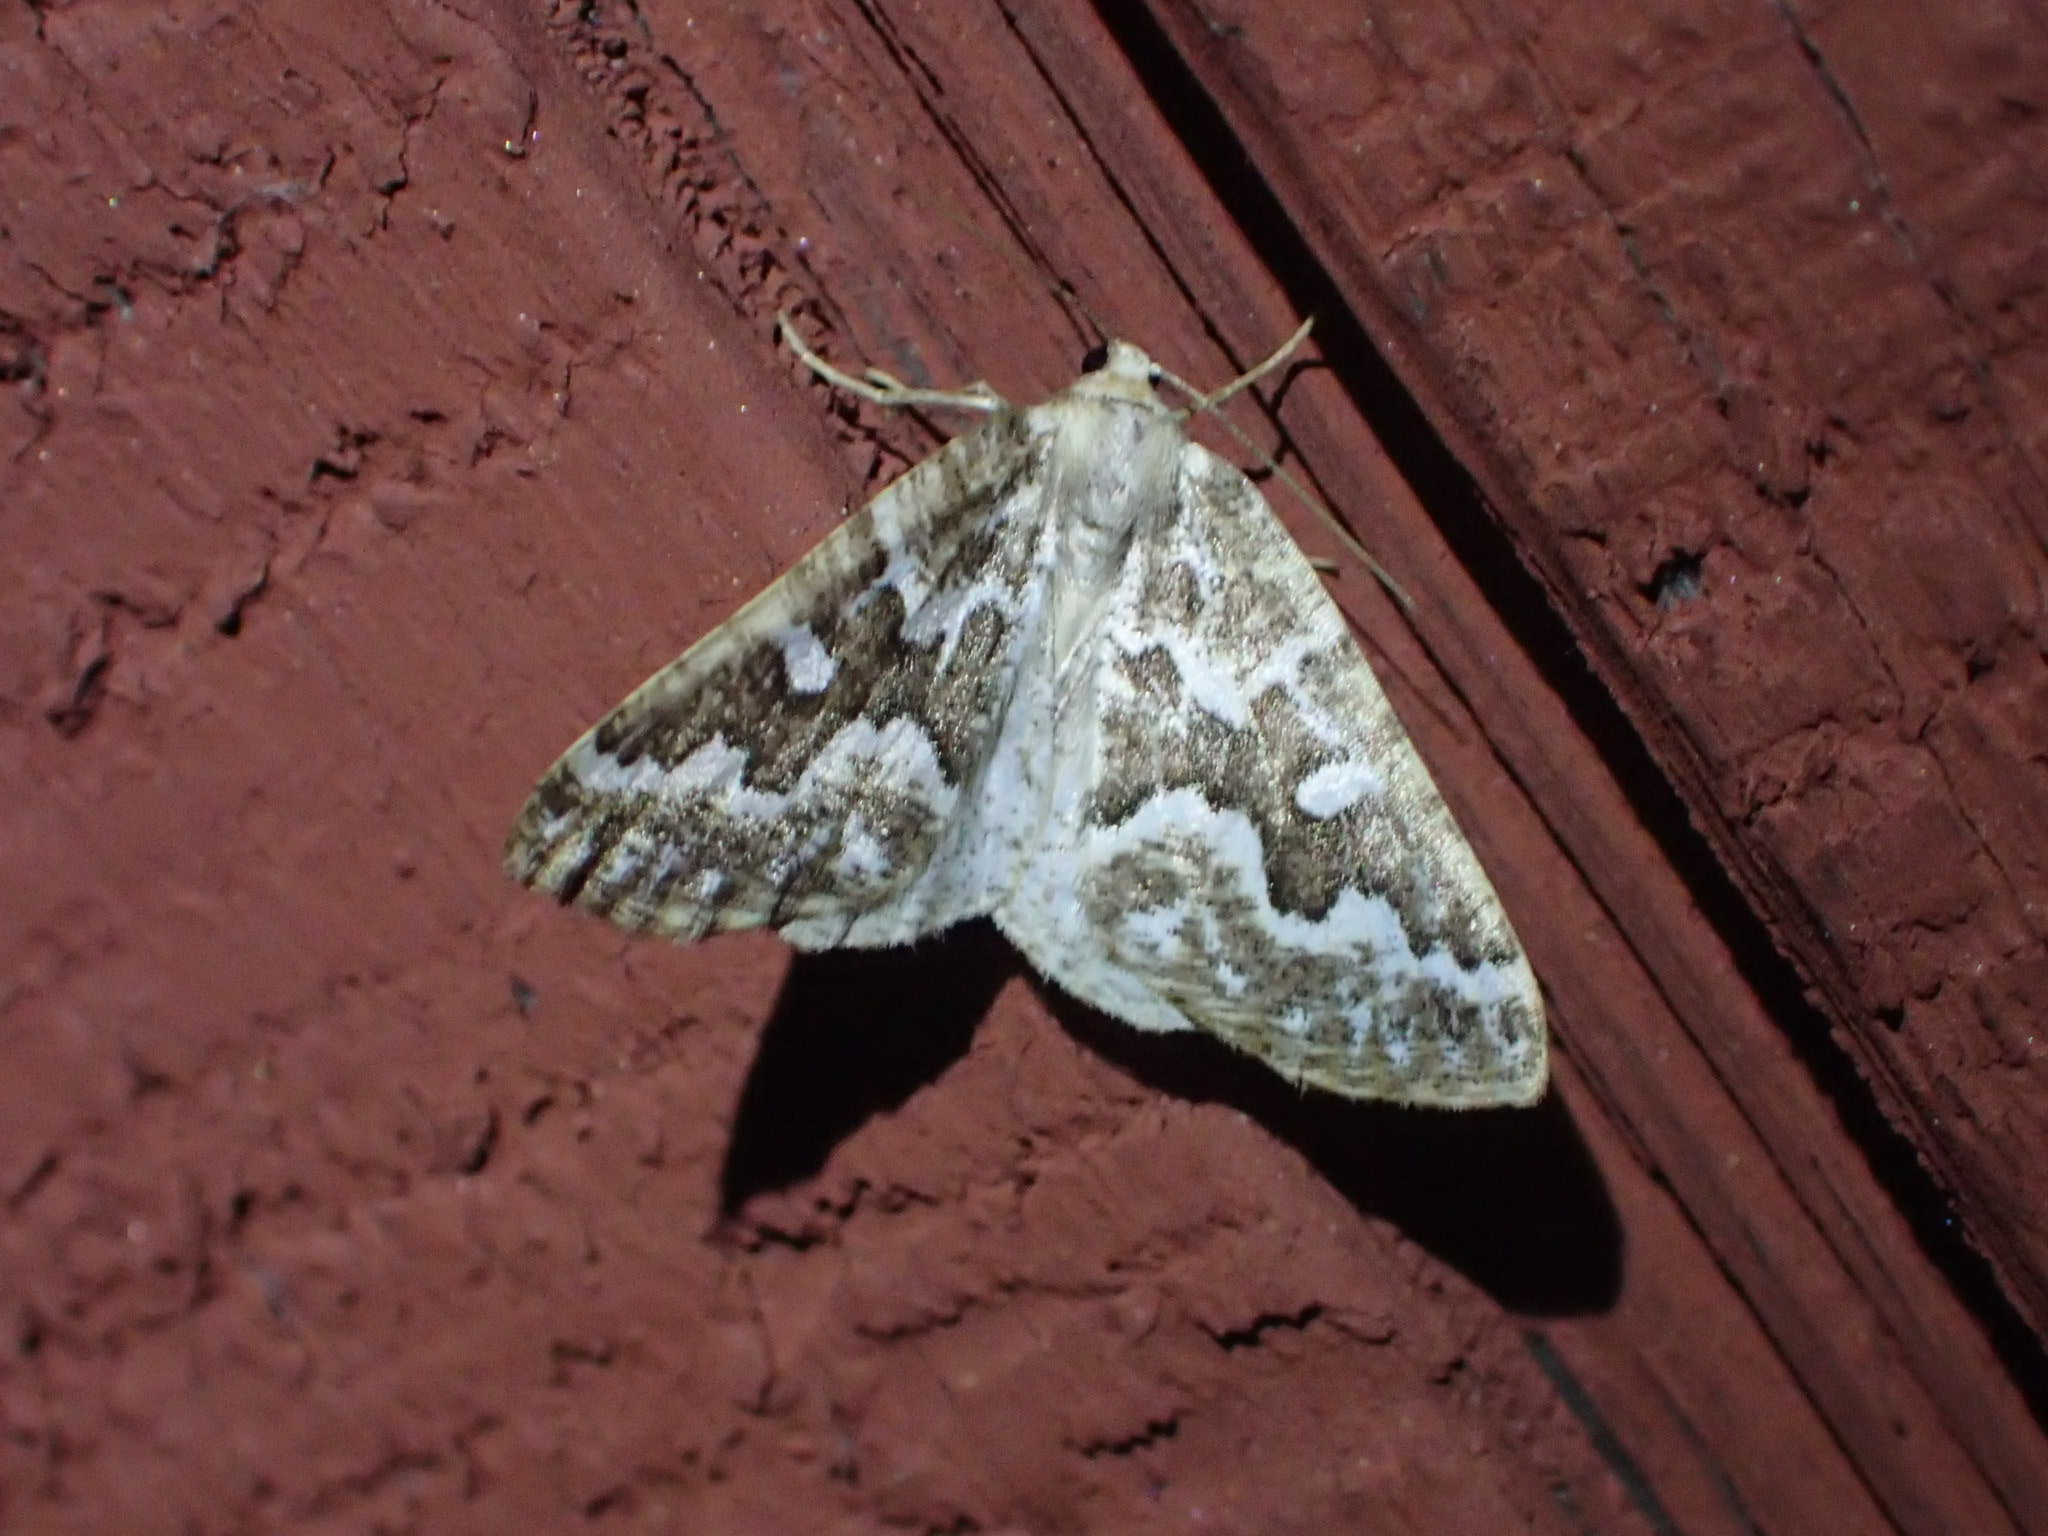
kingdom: Animalia
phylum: Arthropoda
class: Insecta
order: Lepidoptera
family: Geometridae
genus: Caripeta
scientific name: Caripeta divisata
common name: Gray spruce looper
